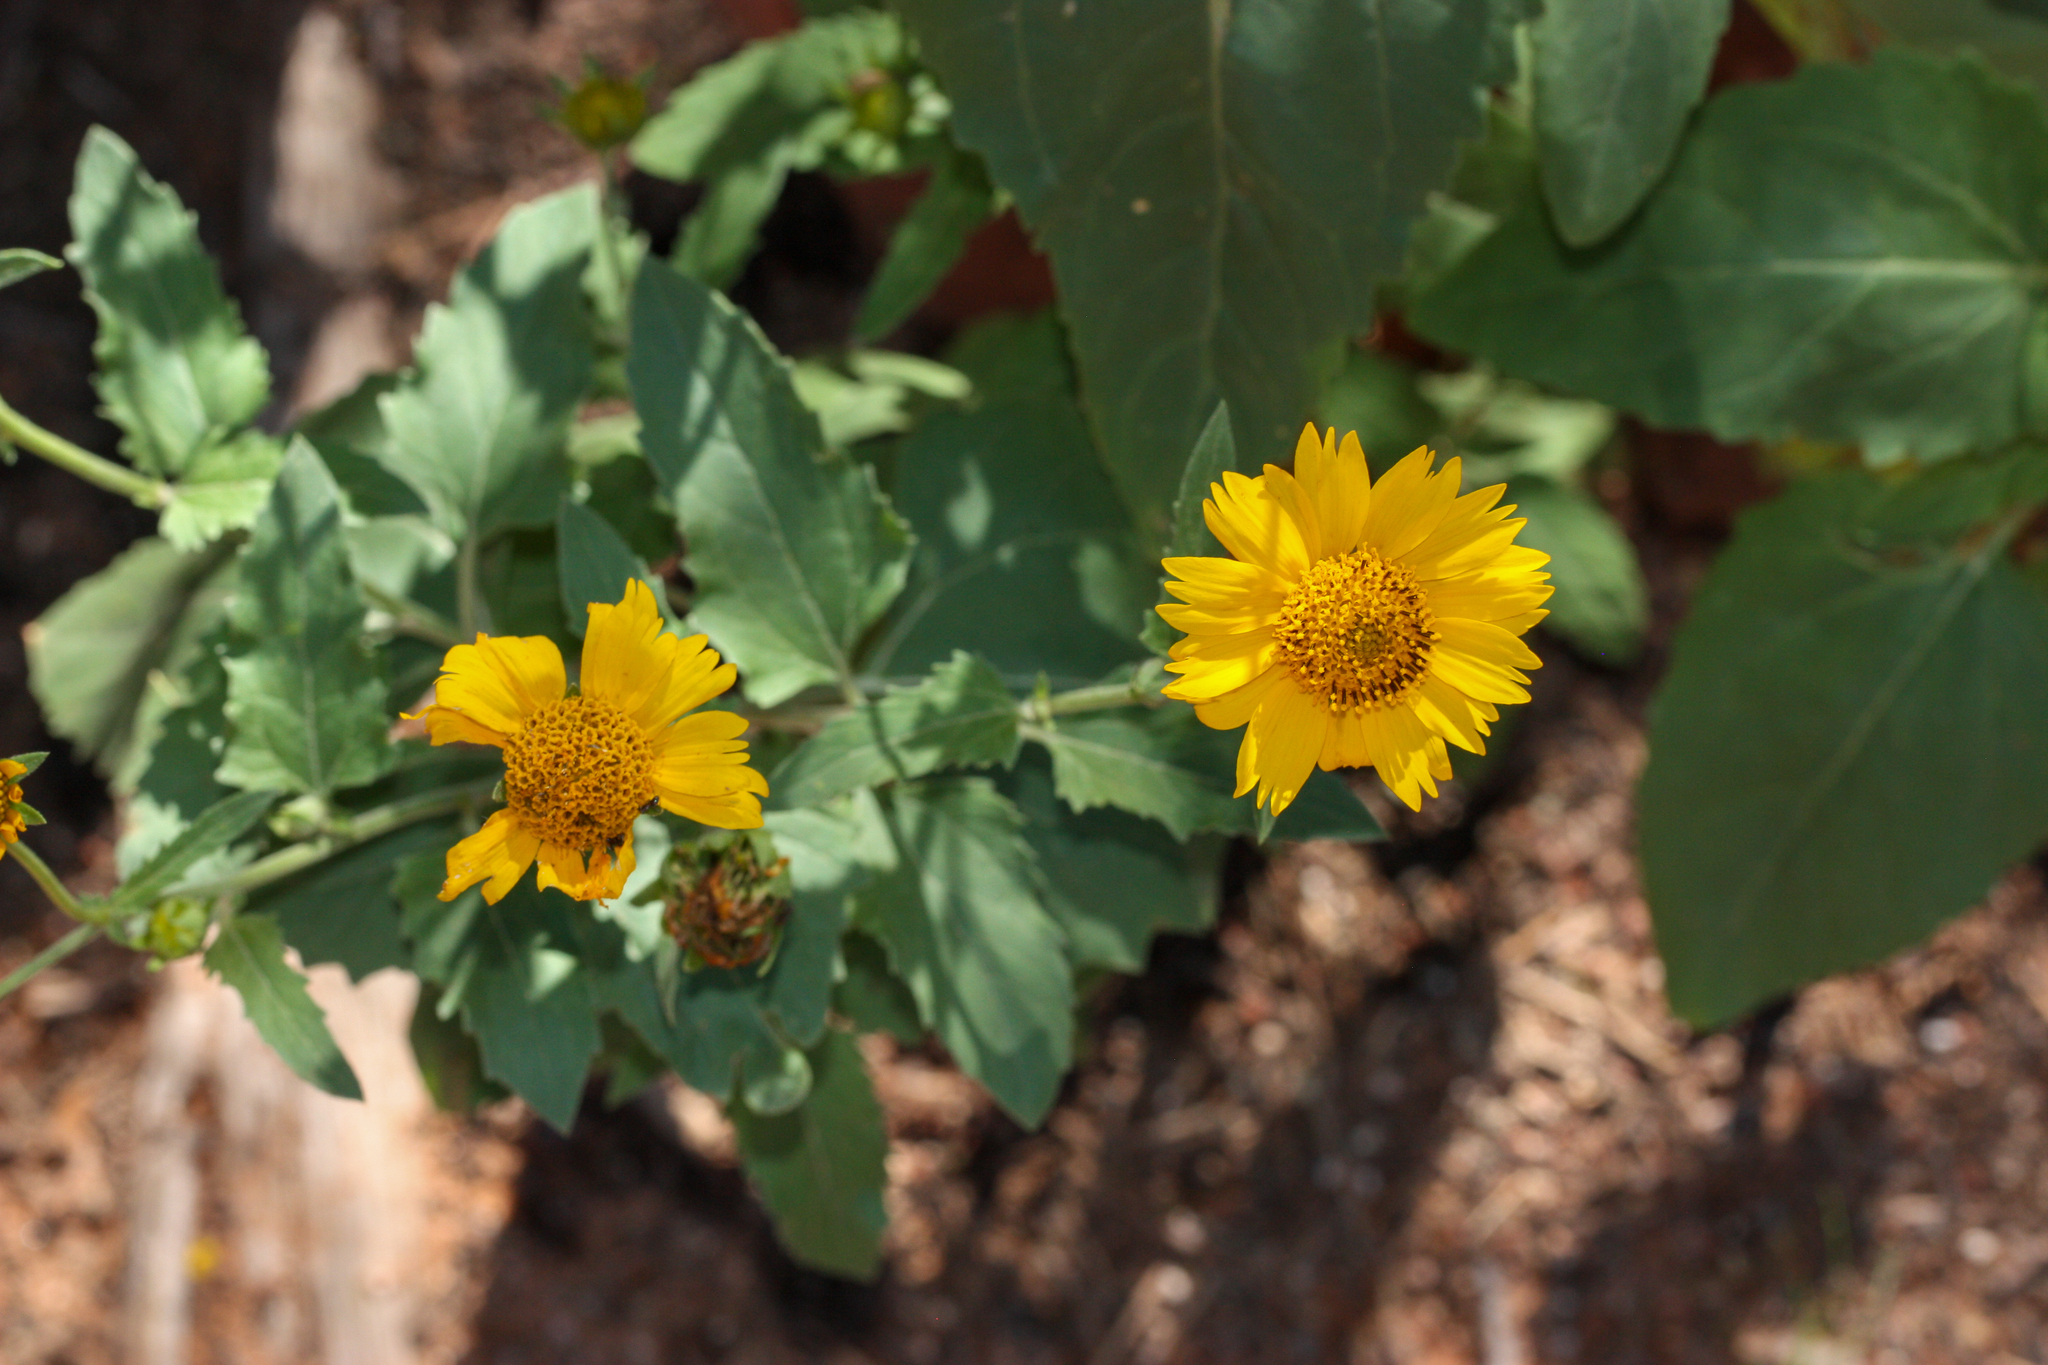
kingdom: Plantae
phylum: Tracheophyta
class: Magnoliopsida
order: Asterales
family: Asteraceae
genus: Verbesina
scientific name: Verbesina encelioides
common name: Golden crownbeard
